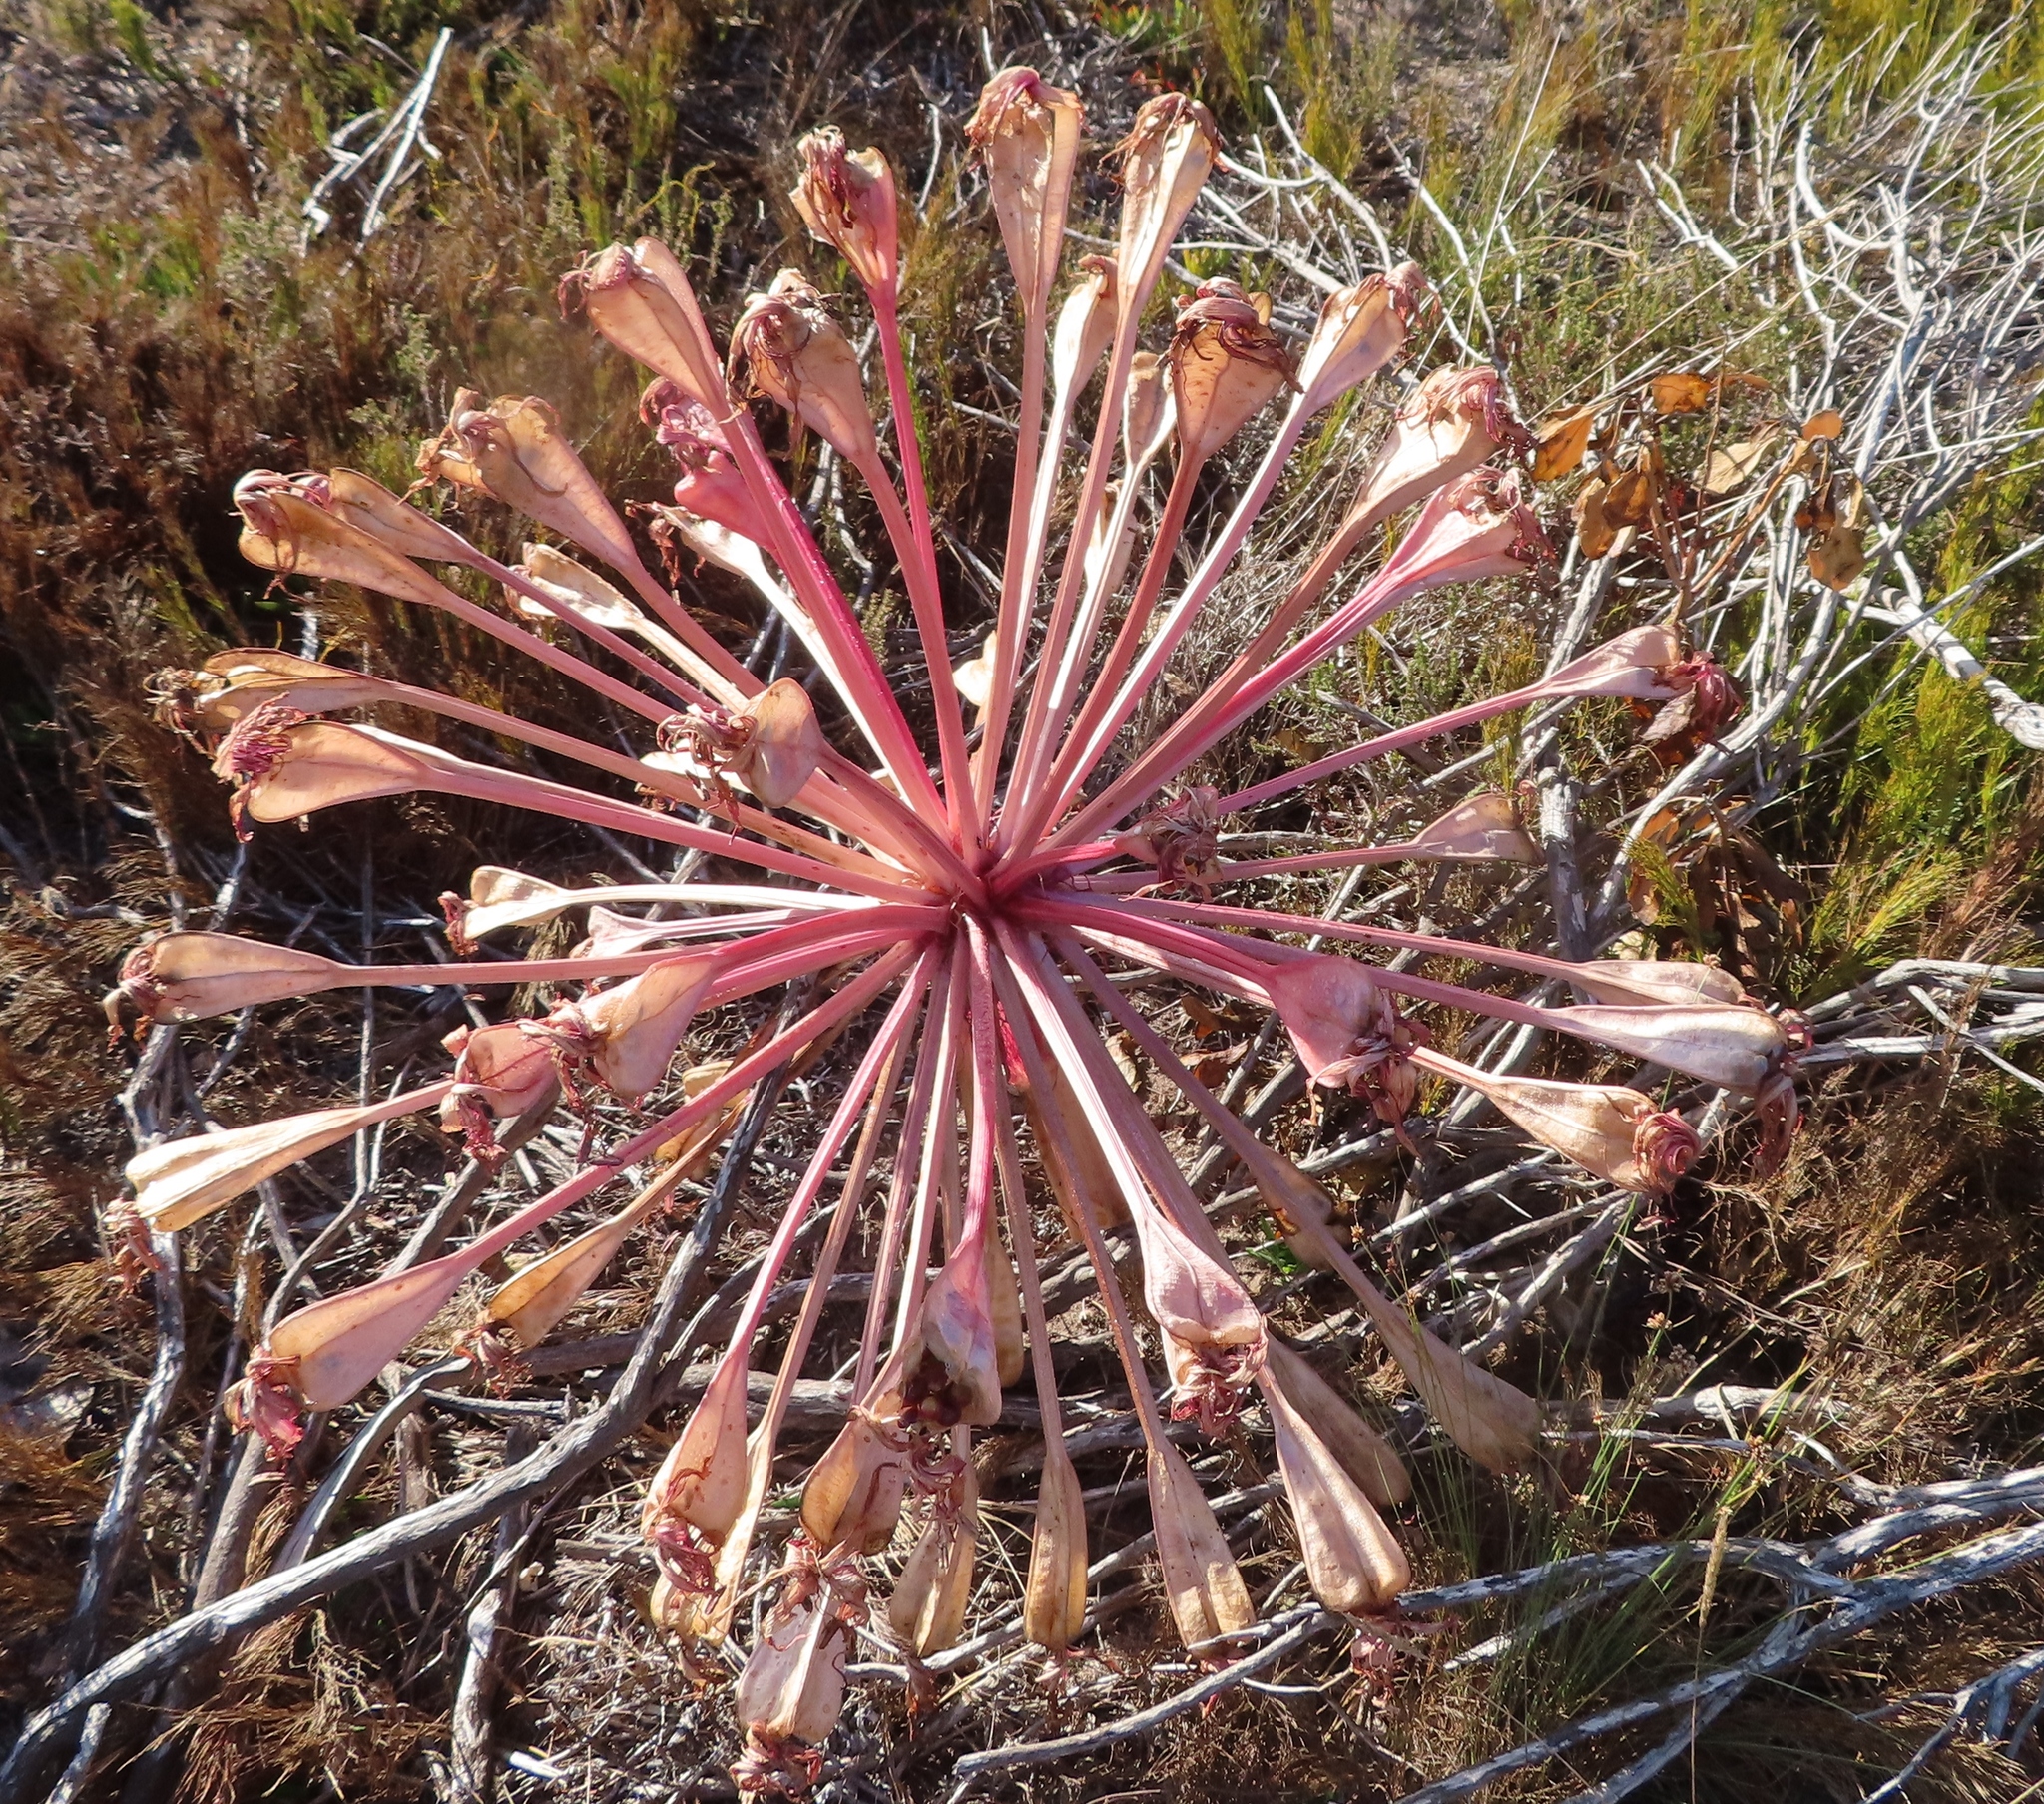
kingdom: Plantae
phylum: Tracheophyta
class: Liliopsida
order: Asparagales
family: Amaryllidaceae
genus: Brunsvigia
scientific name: Brunsvigia orientalis
